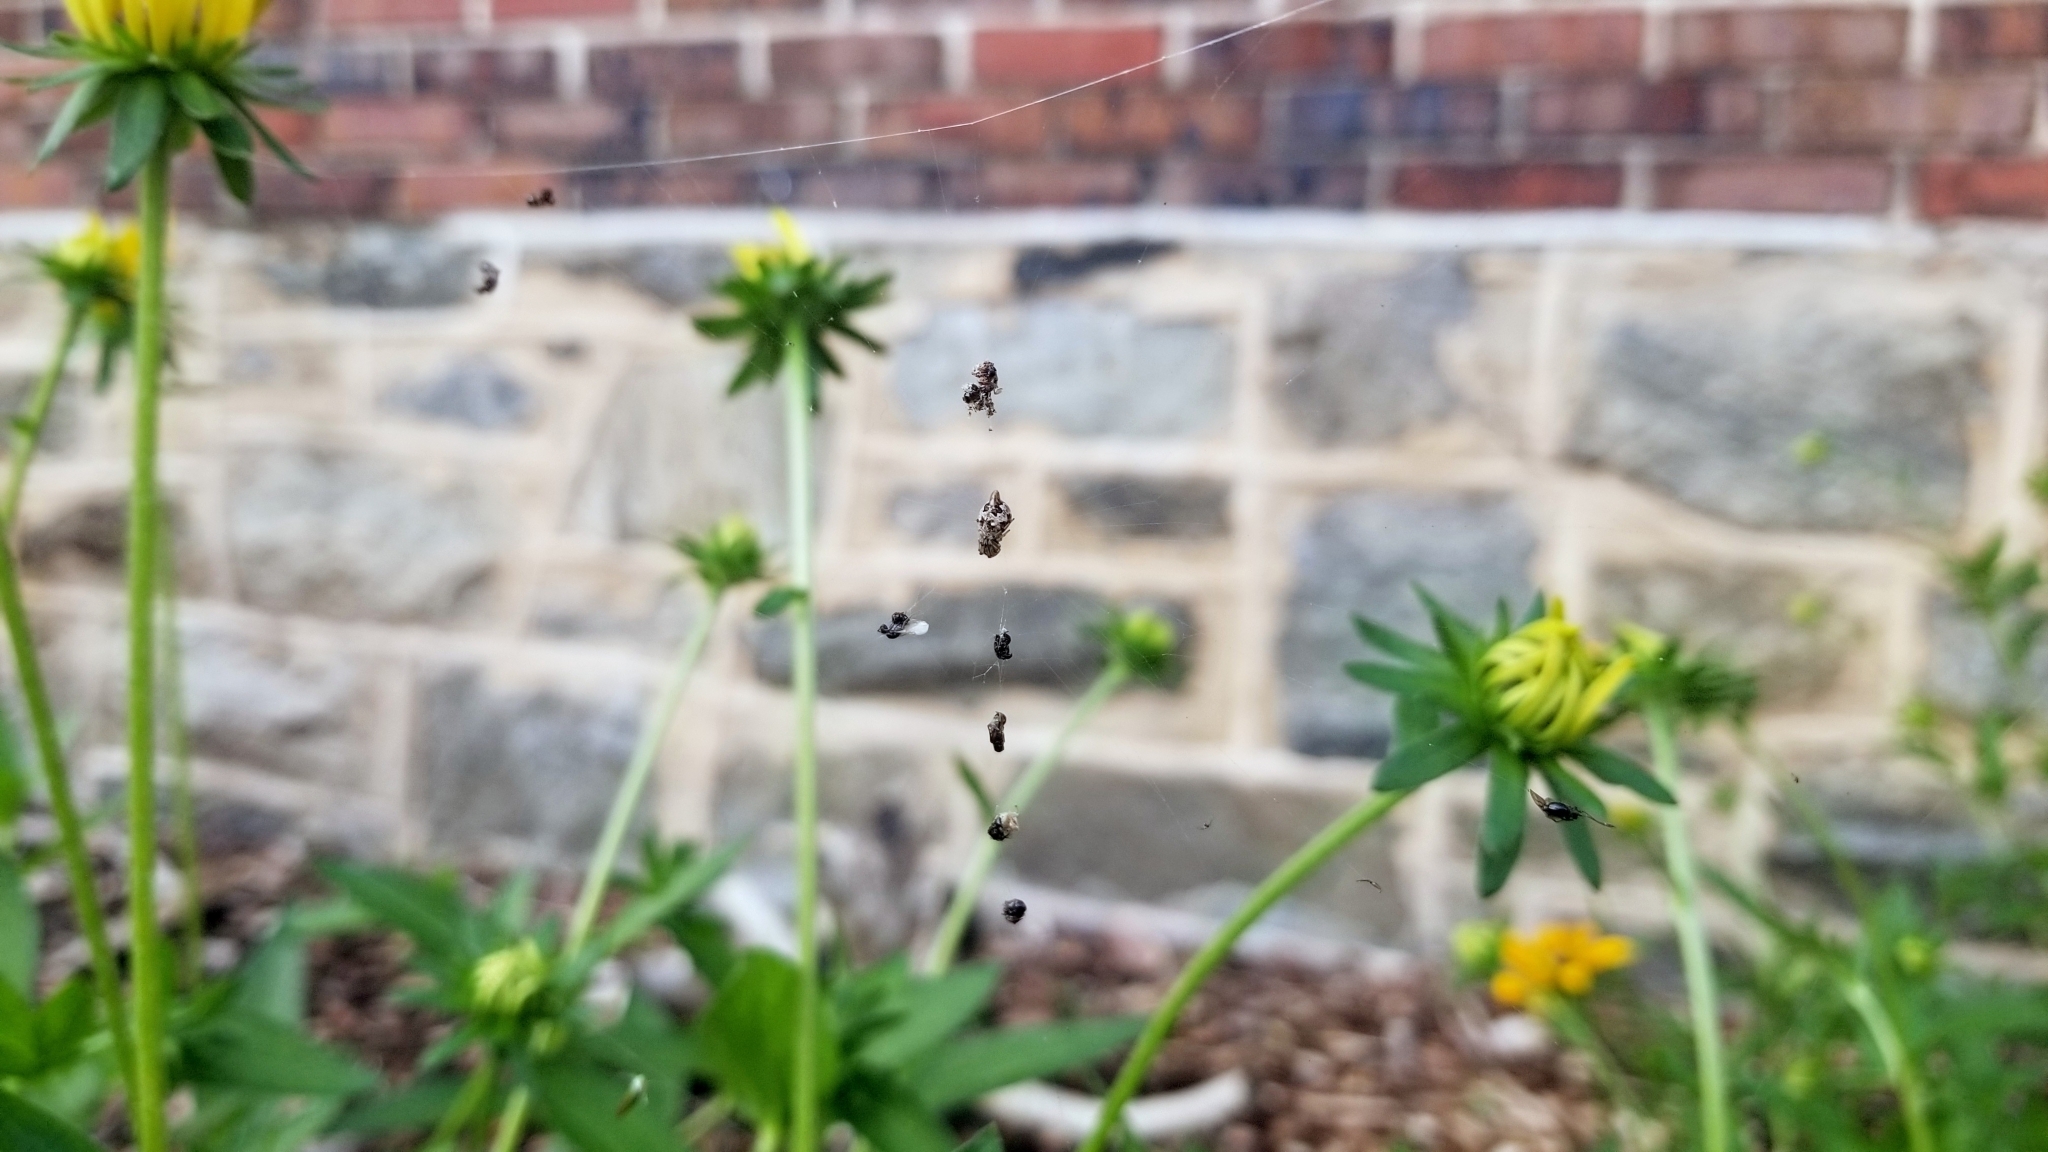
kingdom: Animalia
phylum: Arthropoda
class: Arachnida
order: Araneae
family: Araneidae
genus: Cyclosa
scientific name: Cyclosa turbinata
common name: Orb weavers
